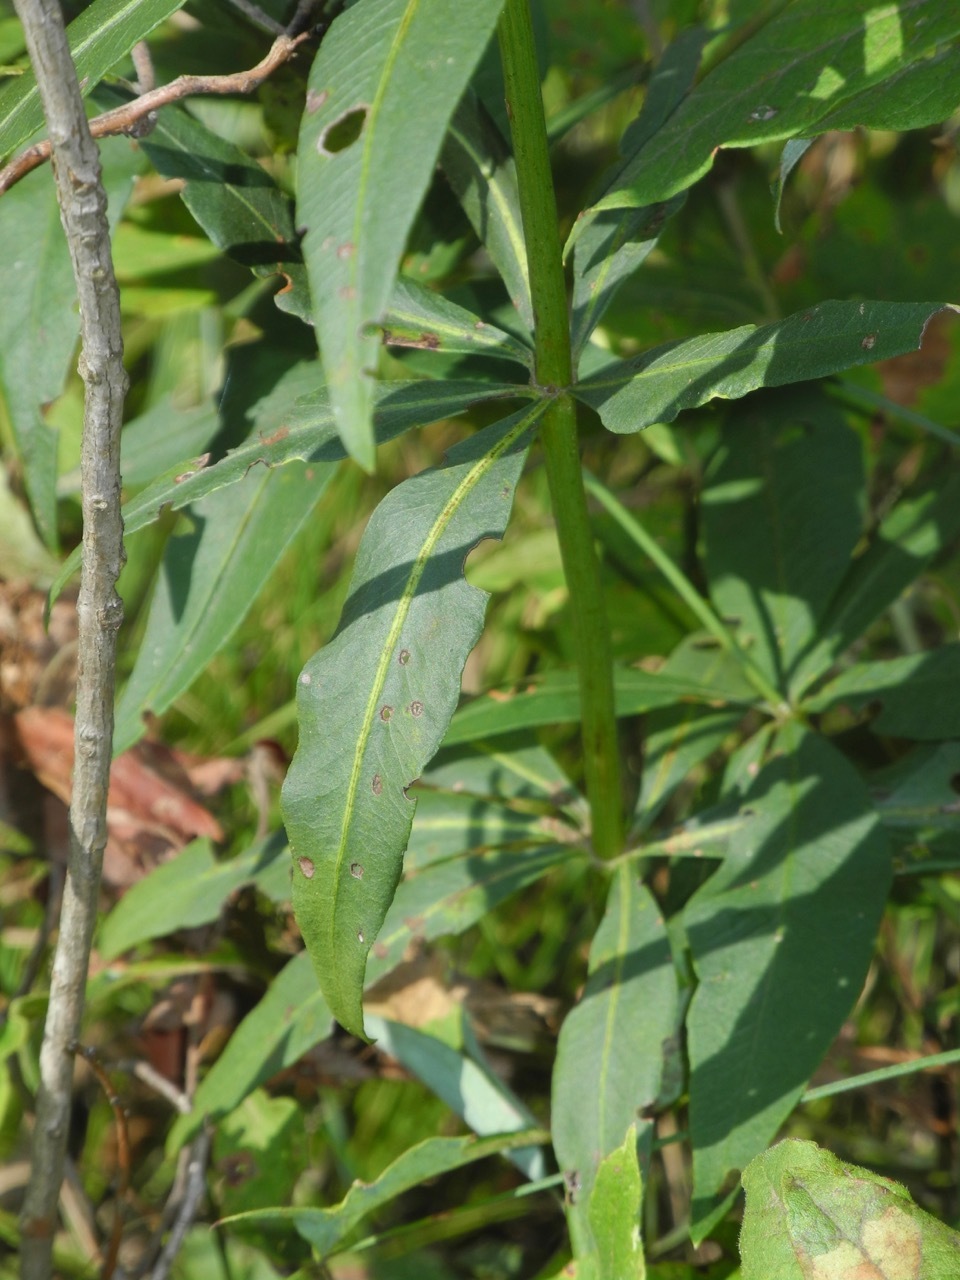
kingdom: Plantae
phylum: Tracheophyta
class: Magnoliopsida
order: Asterales
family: Asteraceae
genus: Coreopsis
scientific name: Coreopsis major
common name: Forest tickseed
